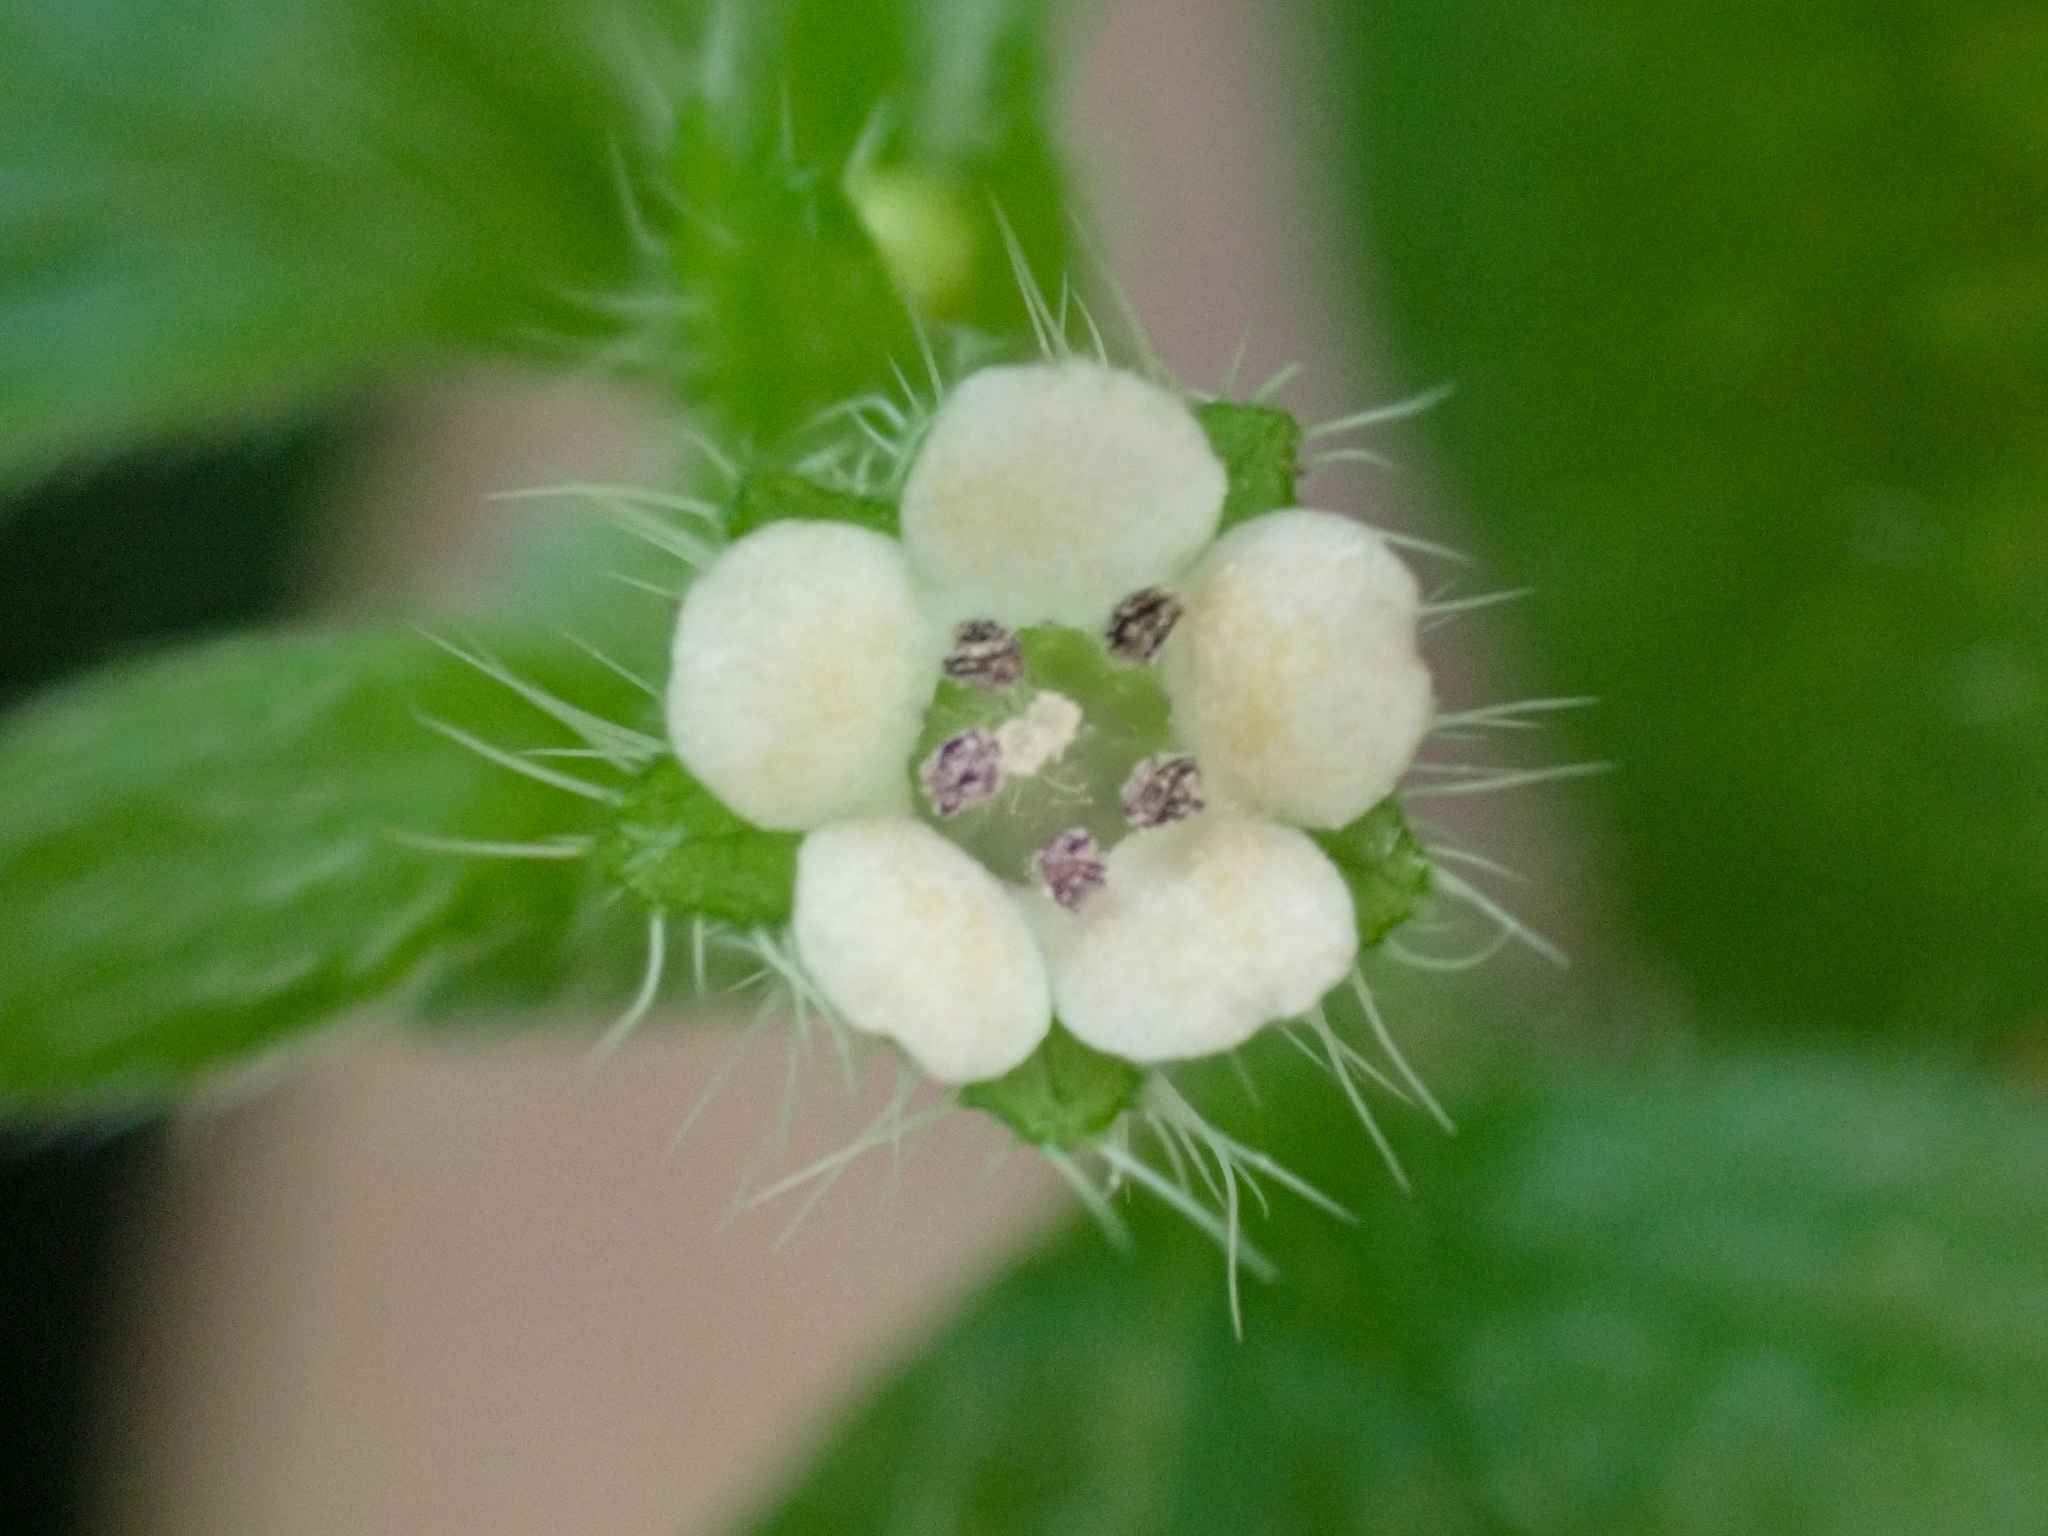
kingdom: Plantae
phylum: Tracheophyta
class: Magnoliopsida
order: Boraginales
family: Hydrophyllaceae
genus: Nemophila
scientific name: Nemophila parviflora
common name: Small-flowered baby-blue-eyes
